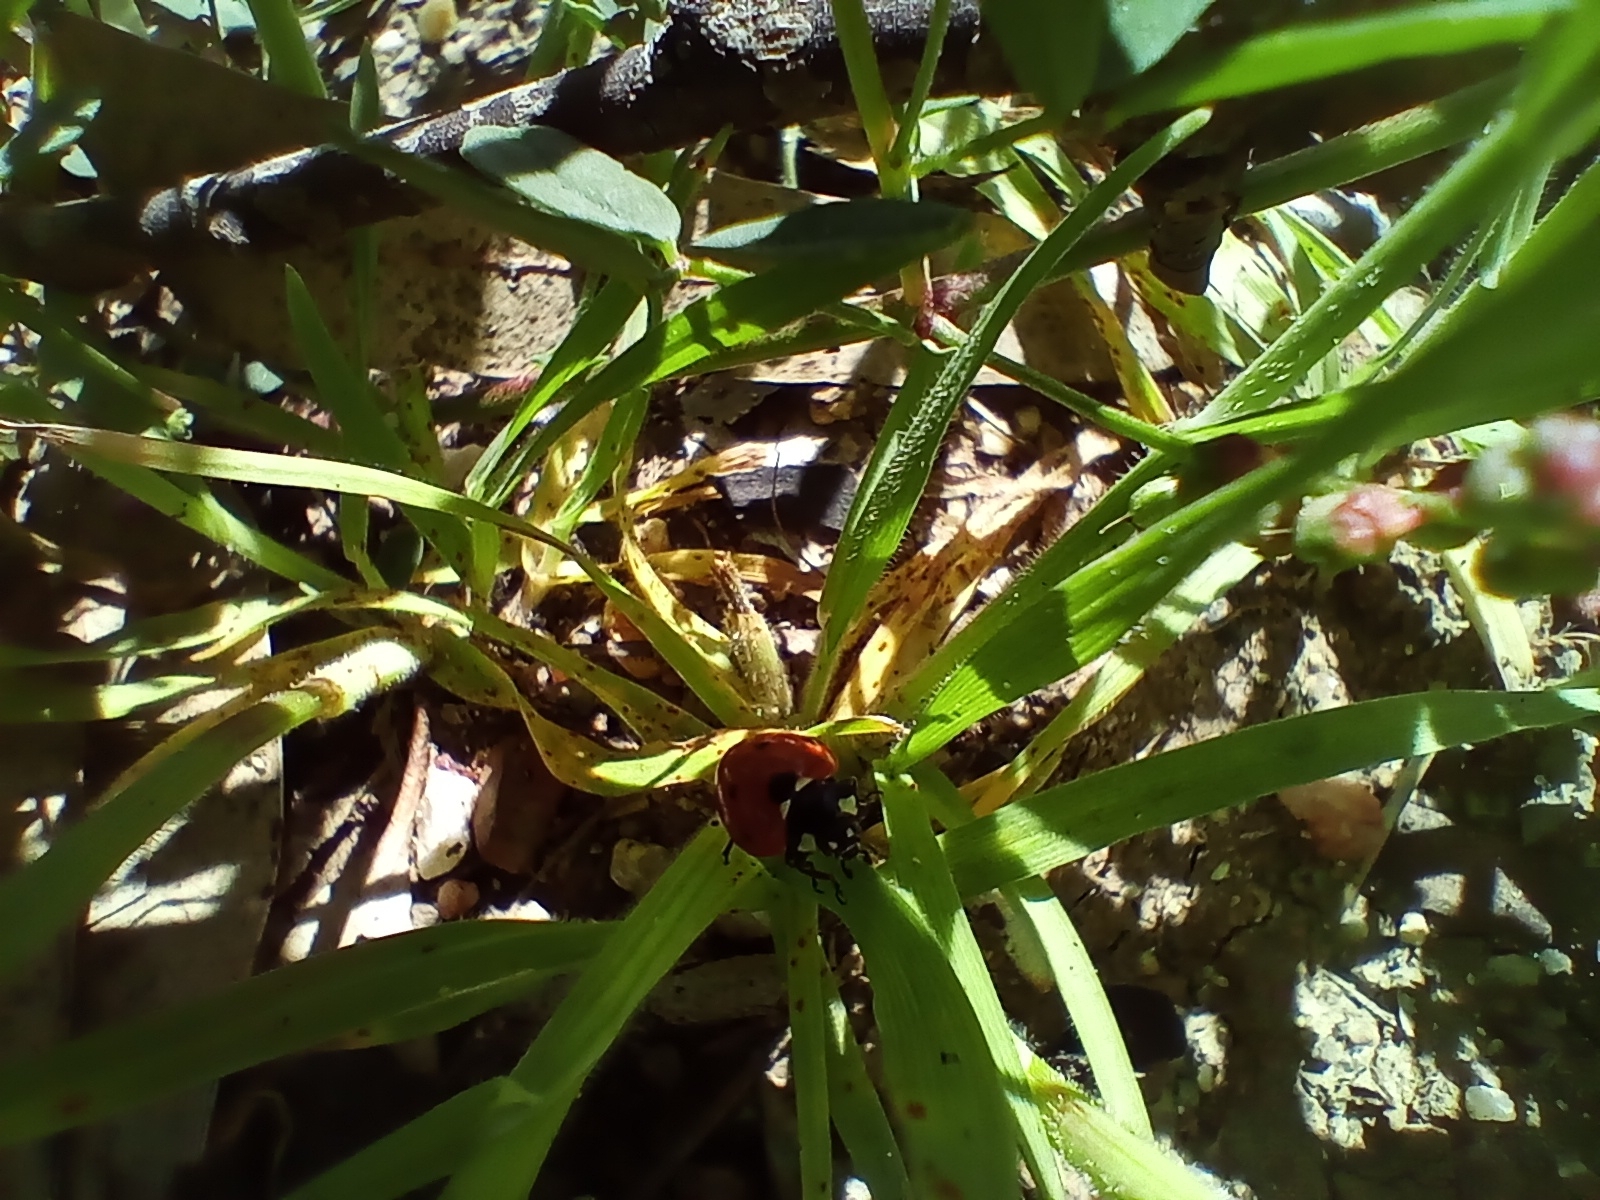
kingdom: Animalia
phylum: Arthropoda
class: Insecta
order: Coleoptera
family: Coccinellidae
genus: Coccinella
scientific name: Coccinella septempunctata
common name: Sevenspotted lady beetle
